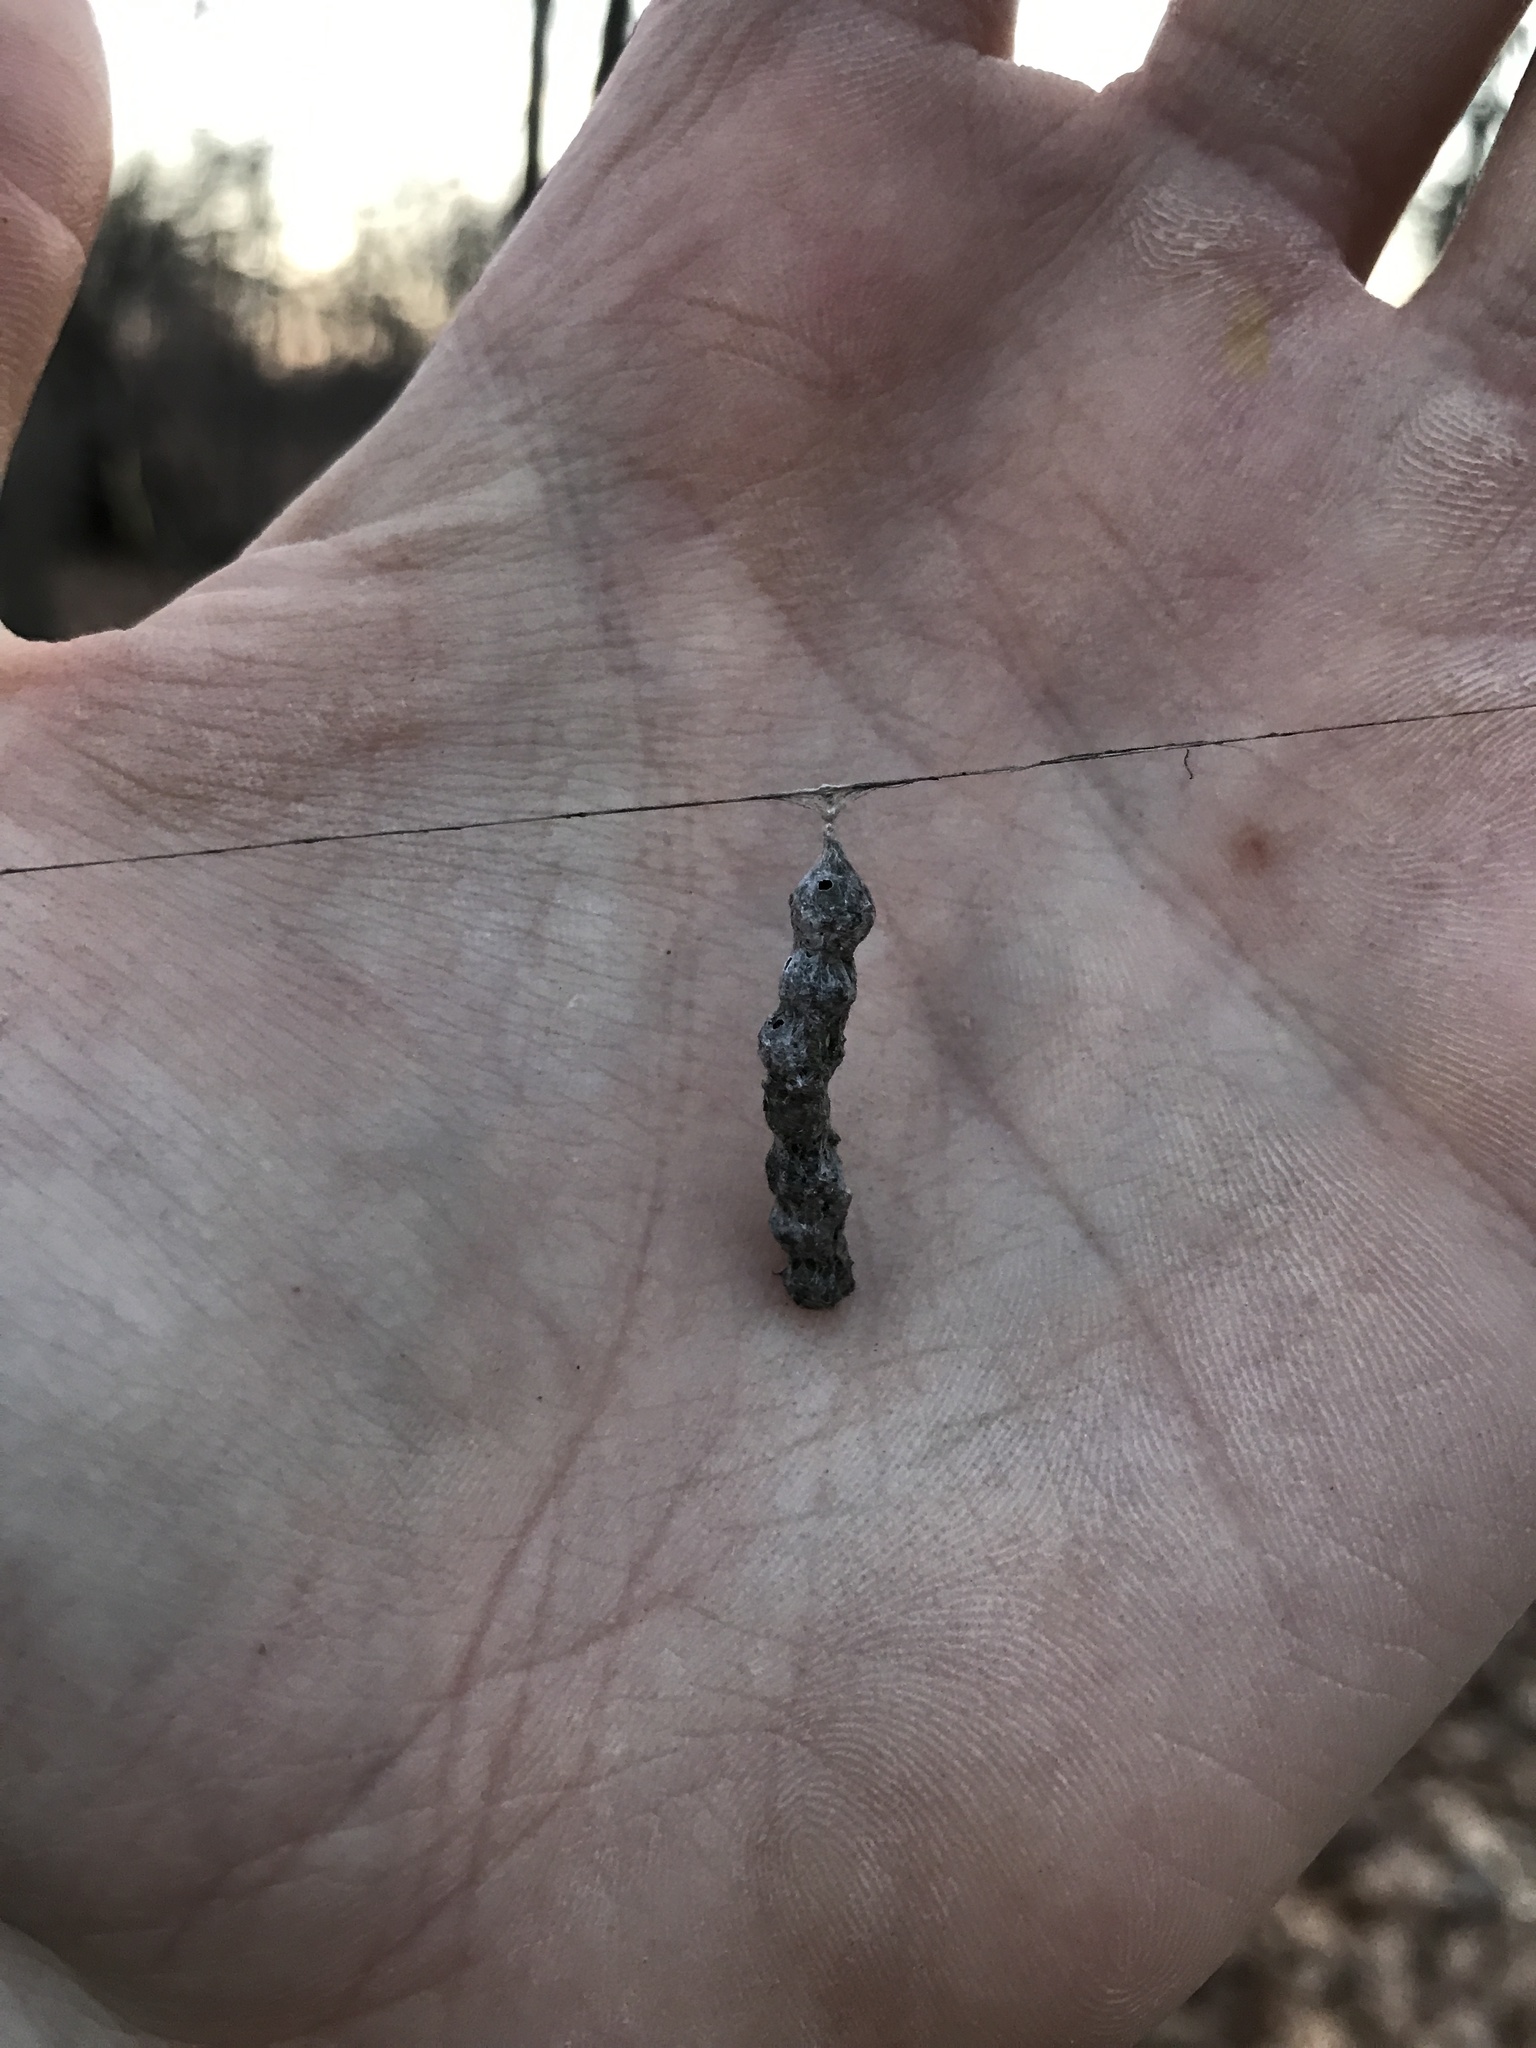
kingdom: Animalia
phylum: Arthropoda
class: Arachnida
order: Araneae
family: Araneidae
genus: Mecynogea
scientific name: Mecynogea lemniscata
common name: Orb weavers
